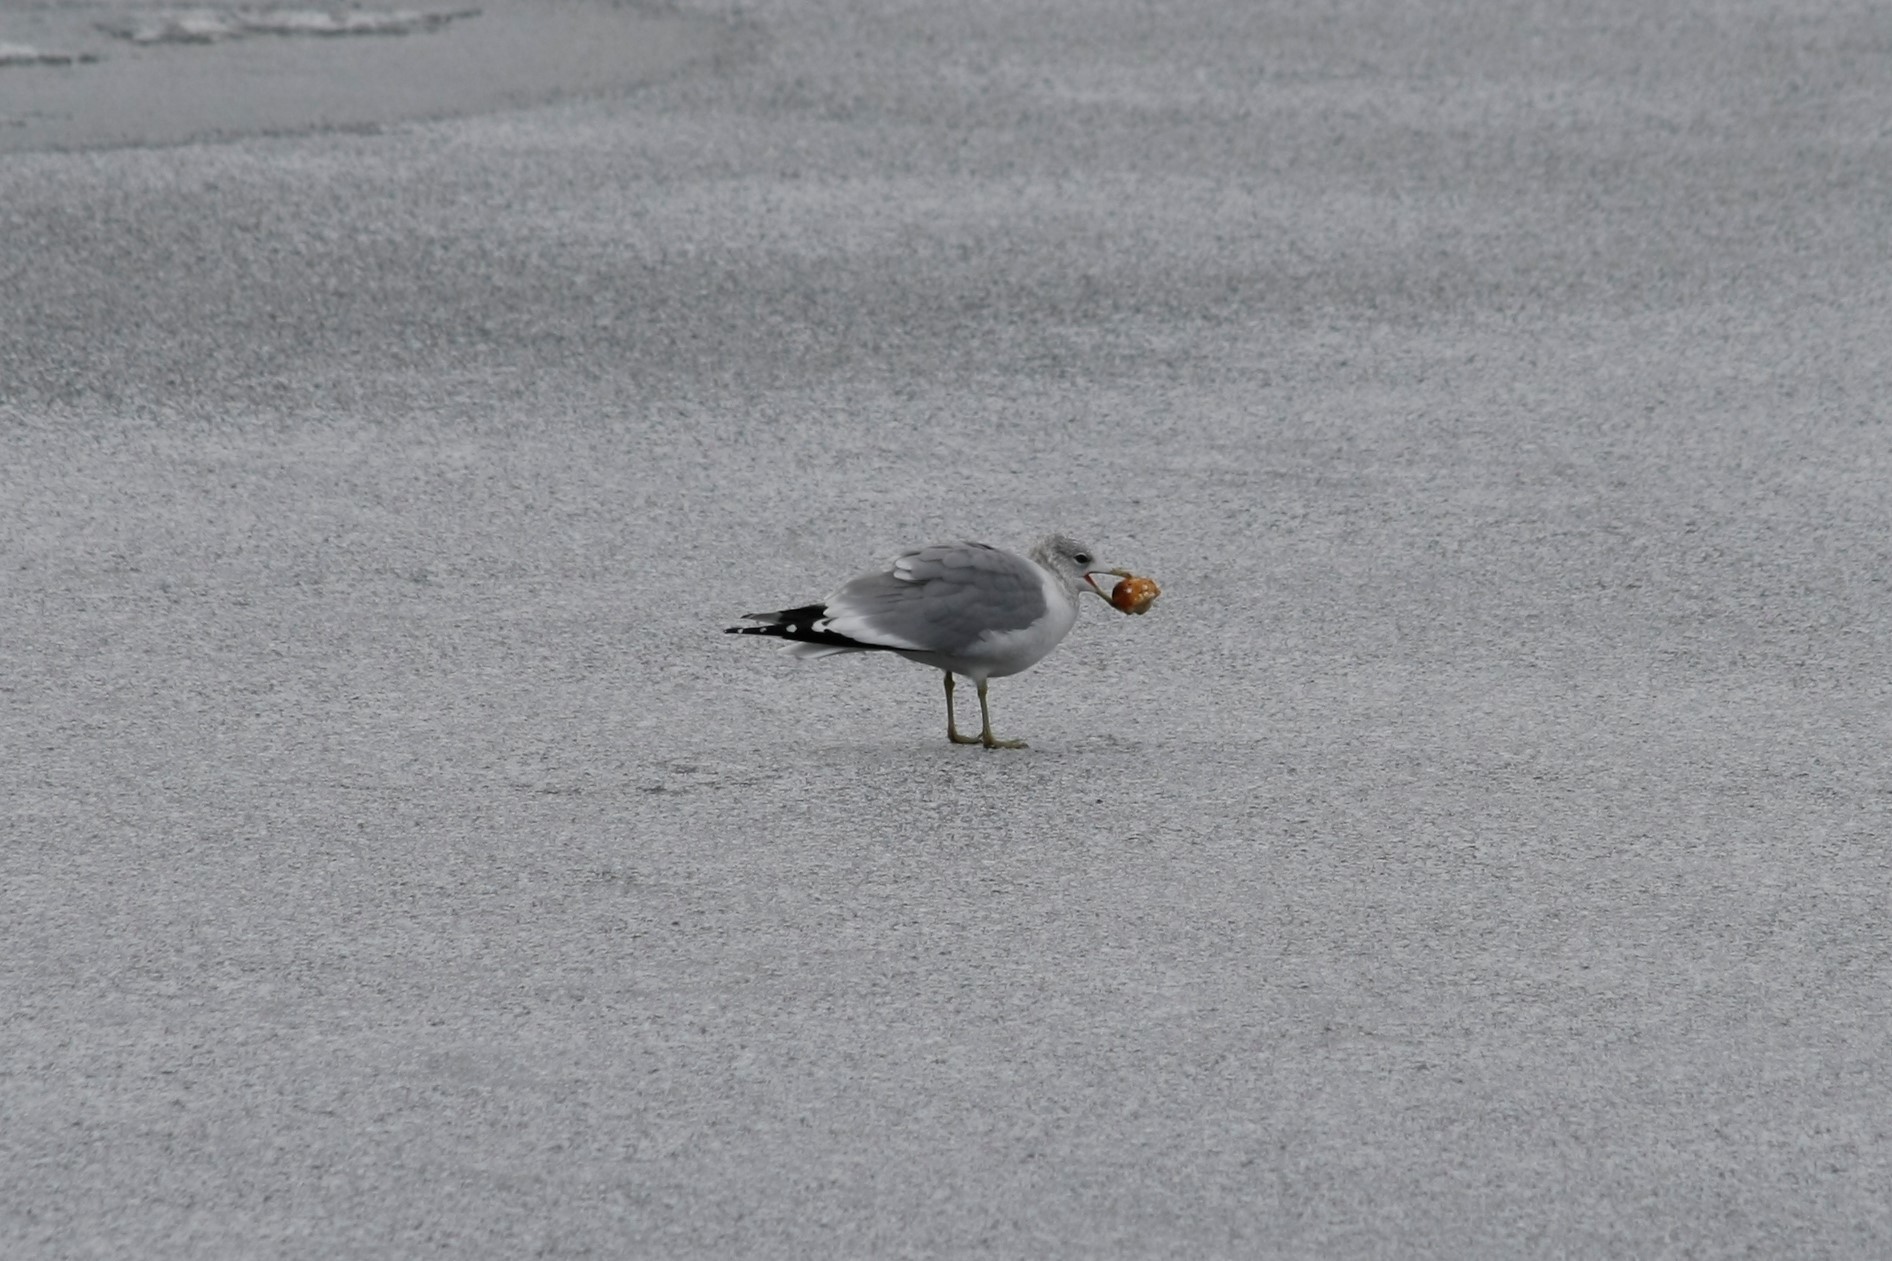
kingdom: Animalia
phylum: Chordata
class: Aves
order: Charadriiformes
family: Laridae
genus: Larus
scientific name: Larus canus
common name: Mew gull
